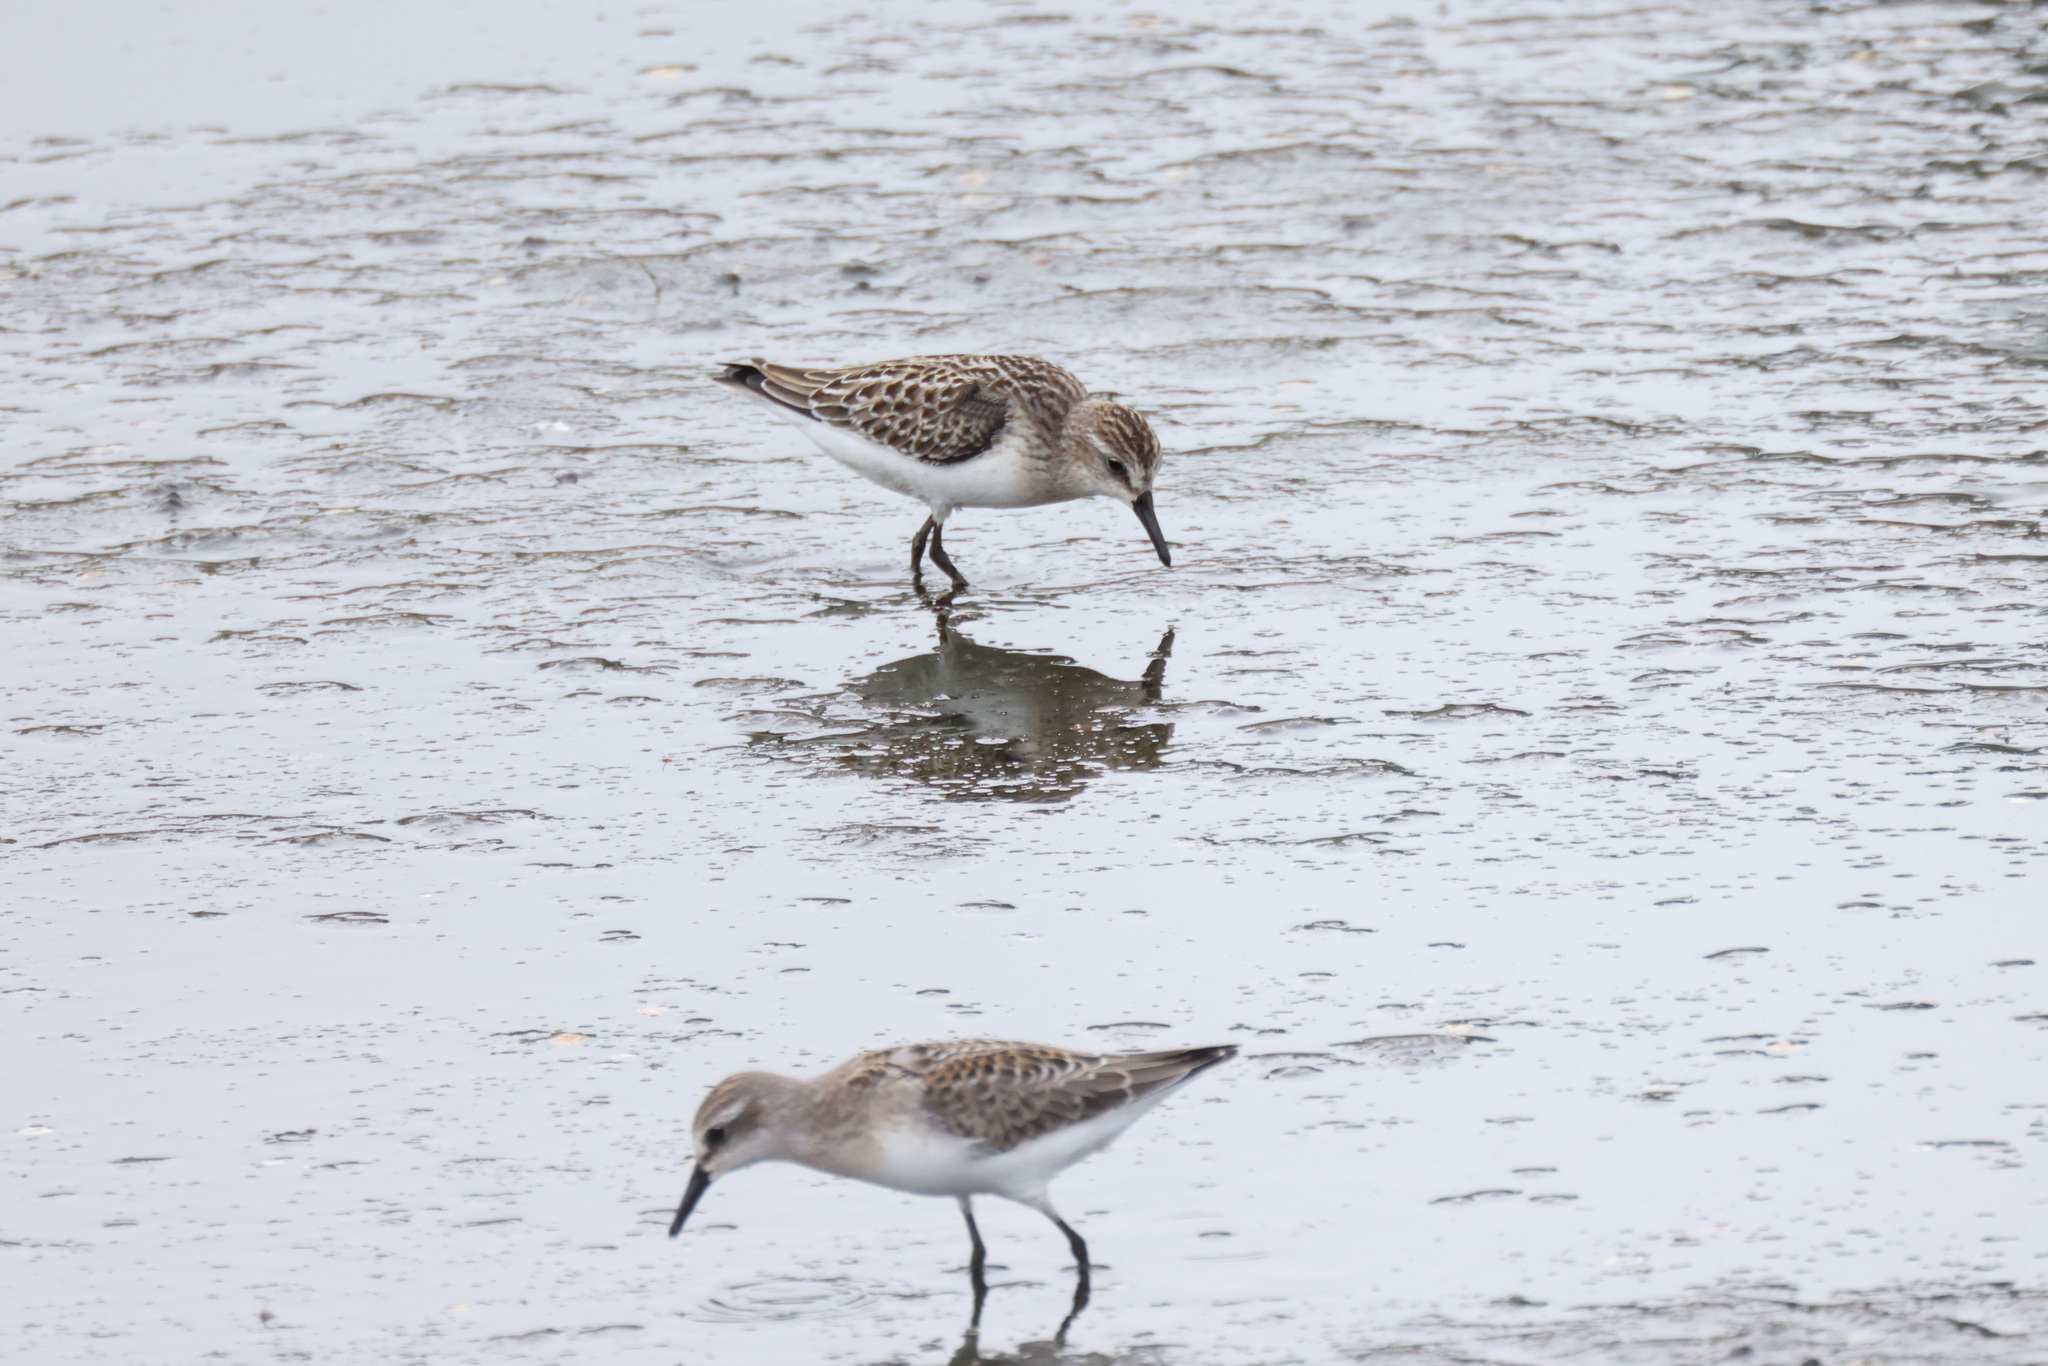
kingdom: Animalia
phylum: Chordata
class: Aves
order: Charadriiformes
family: Scolopacidae
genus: Calidris
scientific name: Calidris pusilla
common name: Semipalmated sandpiper
